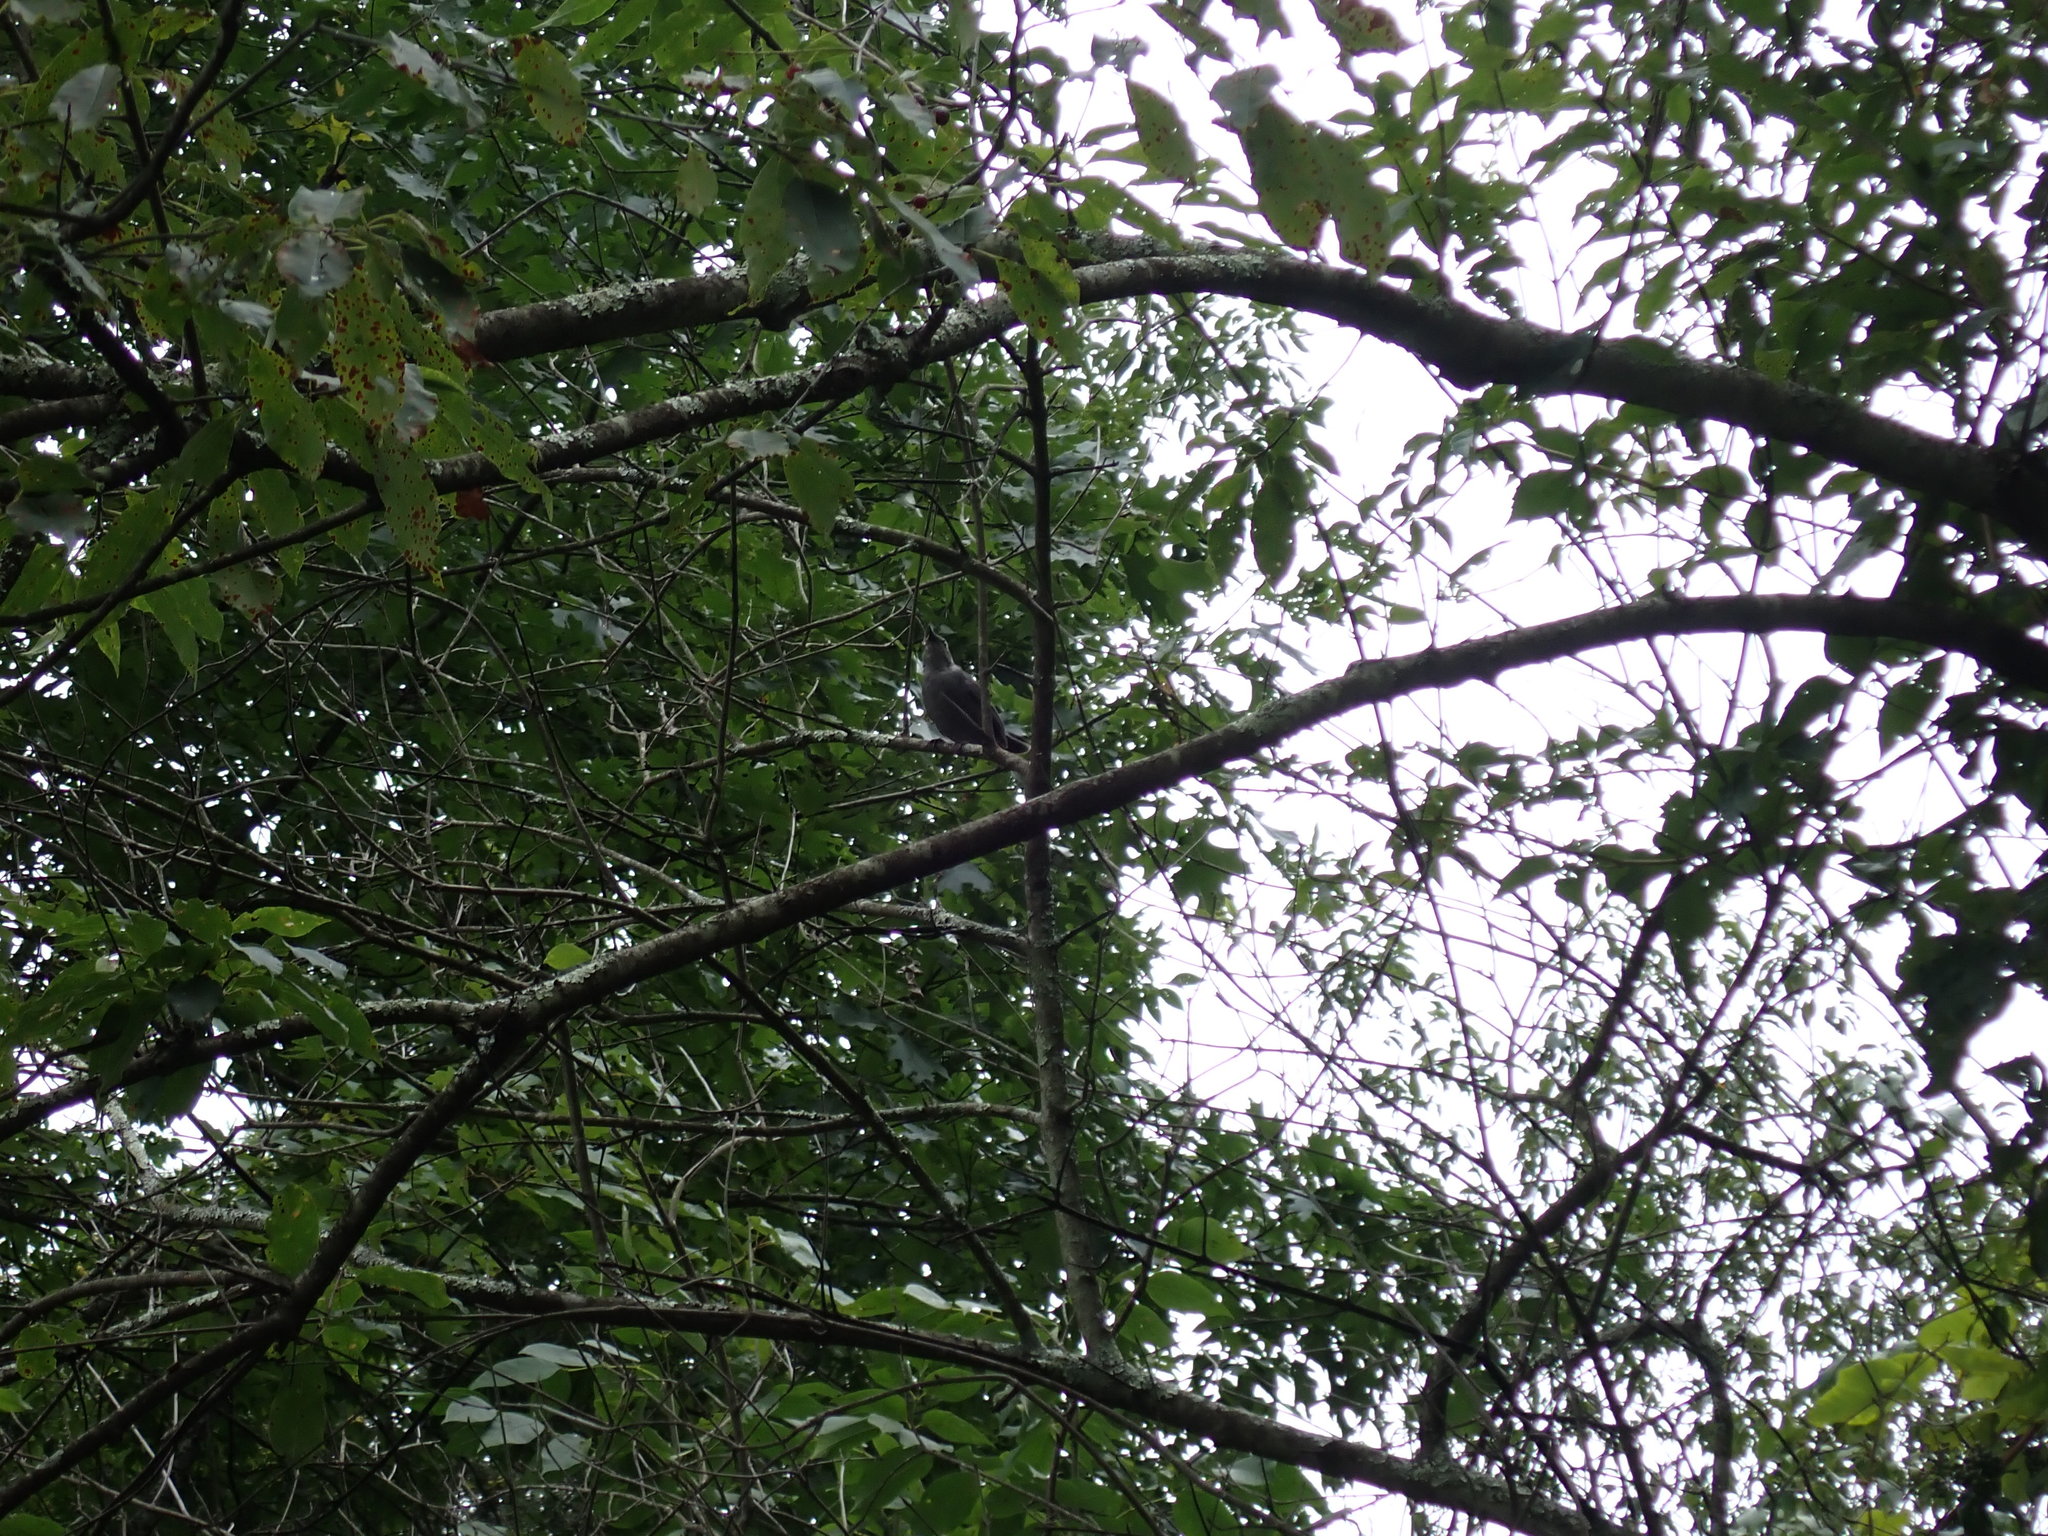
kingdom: Animalia
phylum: Chordata
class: Aves
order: Passeriformes
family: Mimidae
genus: Dumetella
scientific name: Dumetella carolinensis
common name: Gray catbird
